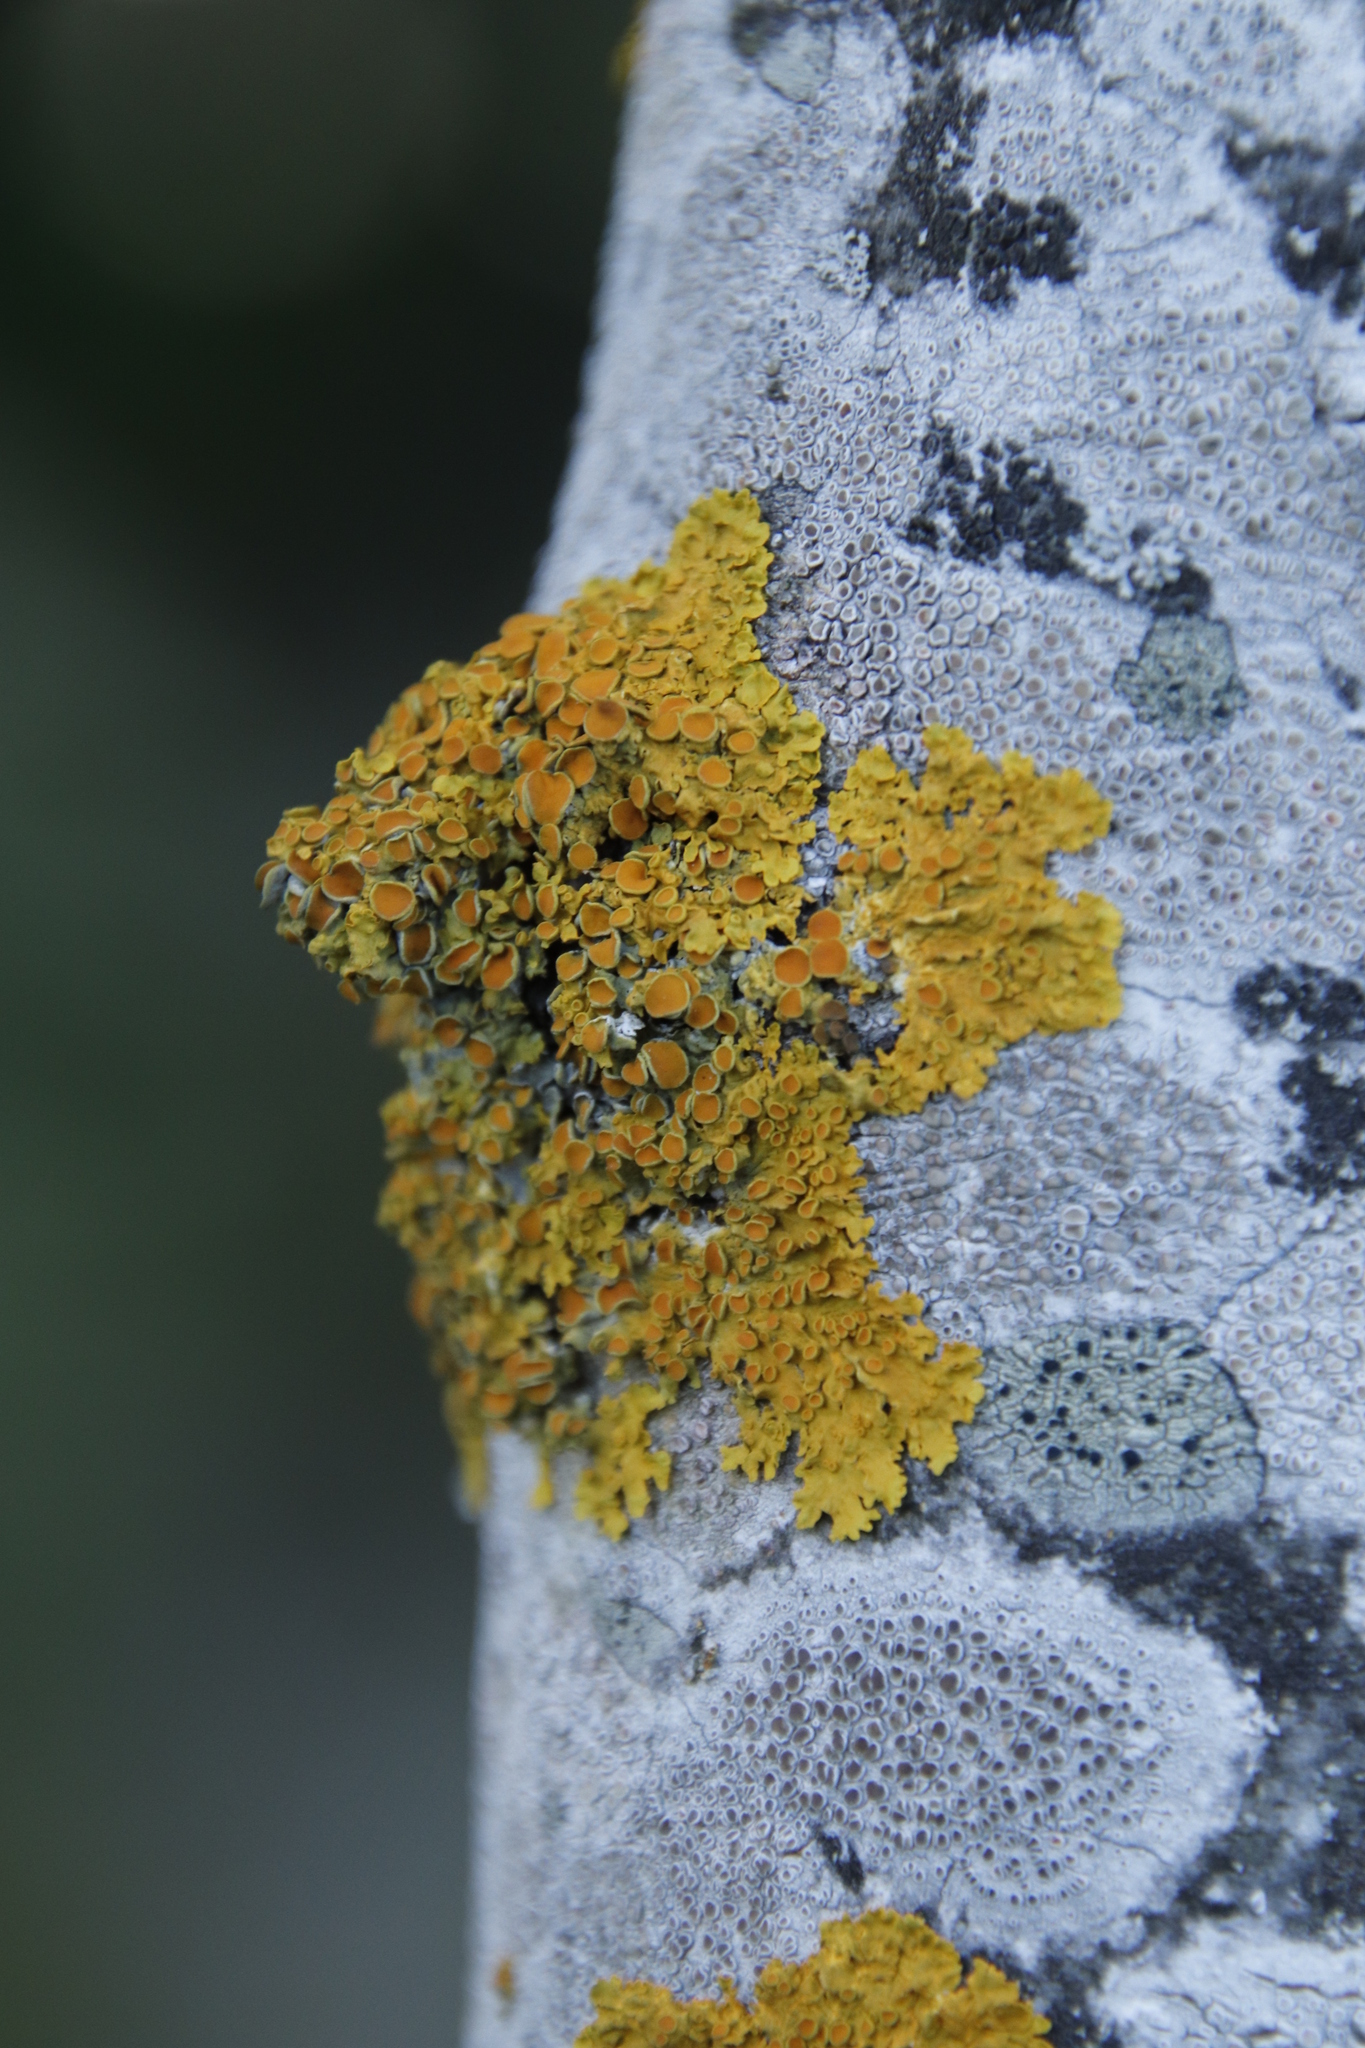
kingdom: Fungi
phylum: Ascomycota
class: Lecanoromycetes
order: Lecanorales
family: Lecanoraceae
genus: Lecidella
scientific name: Lecidella elaeochroma
